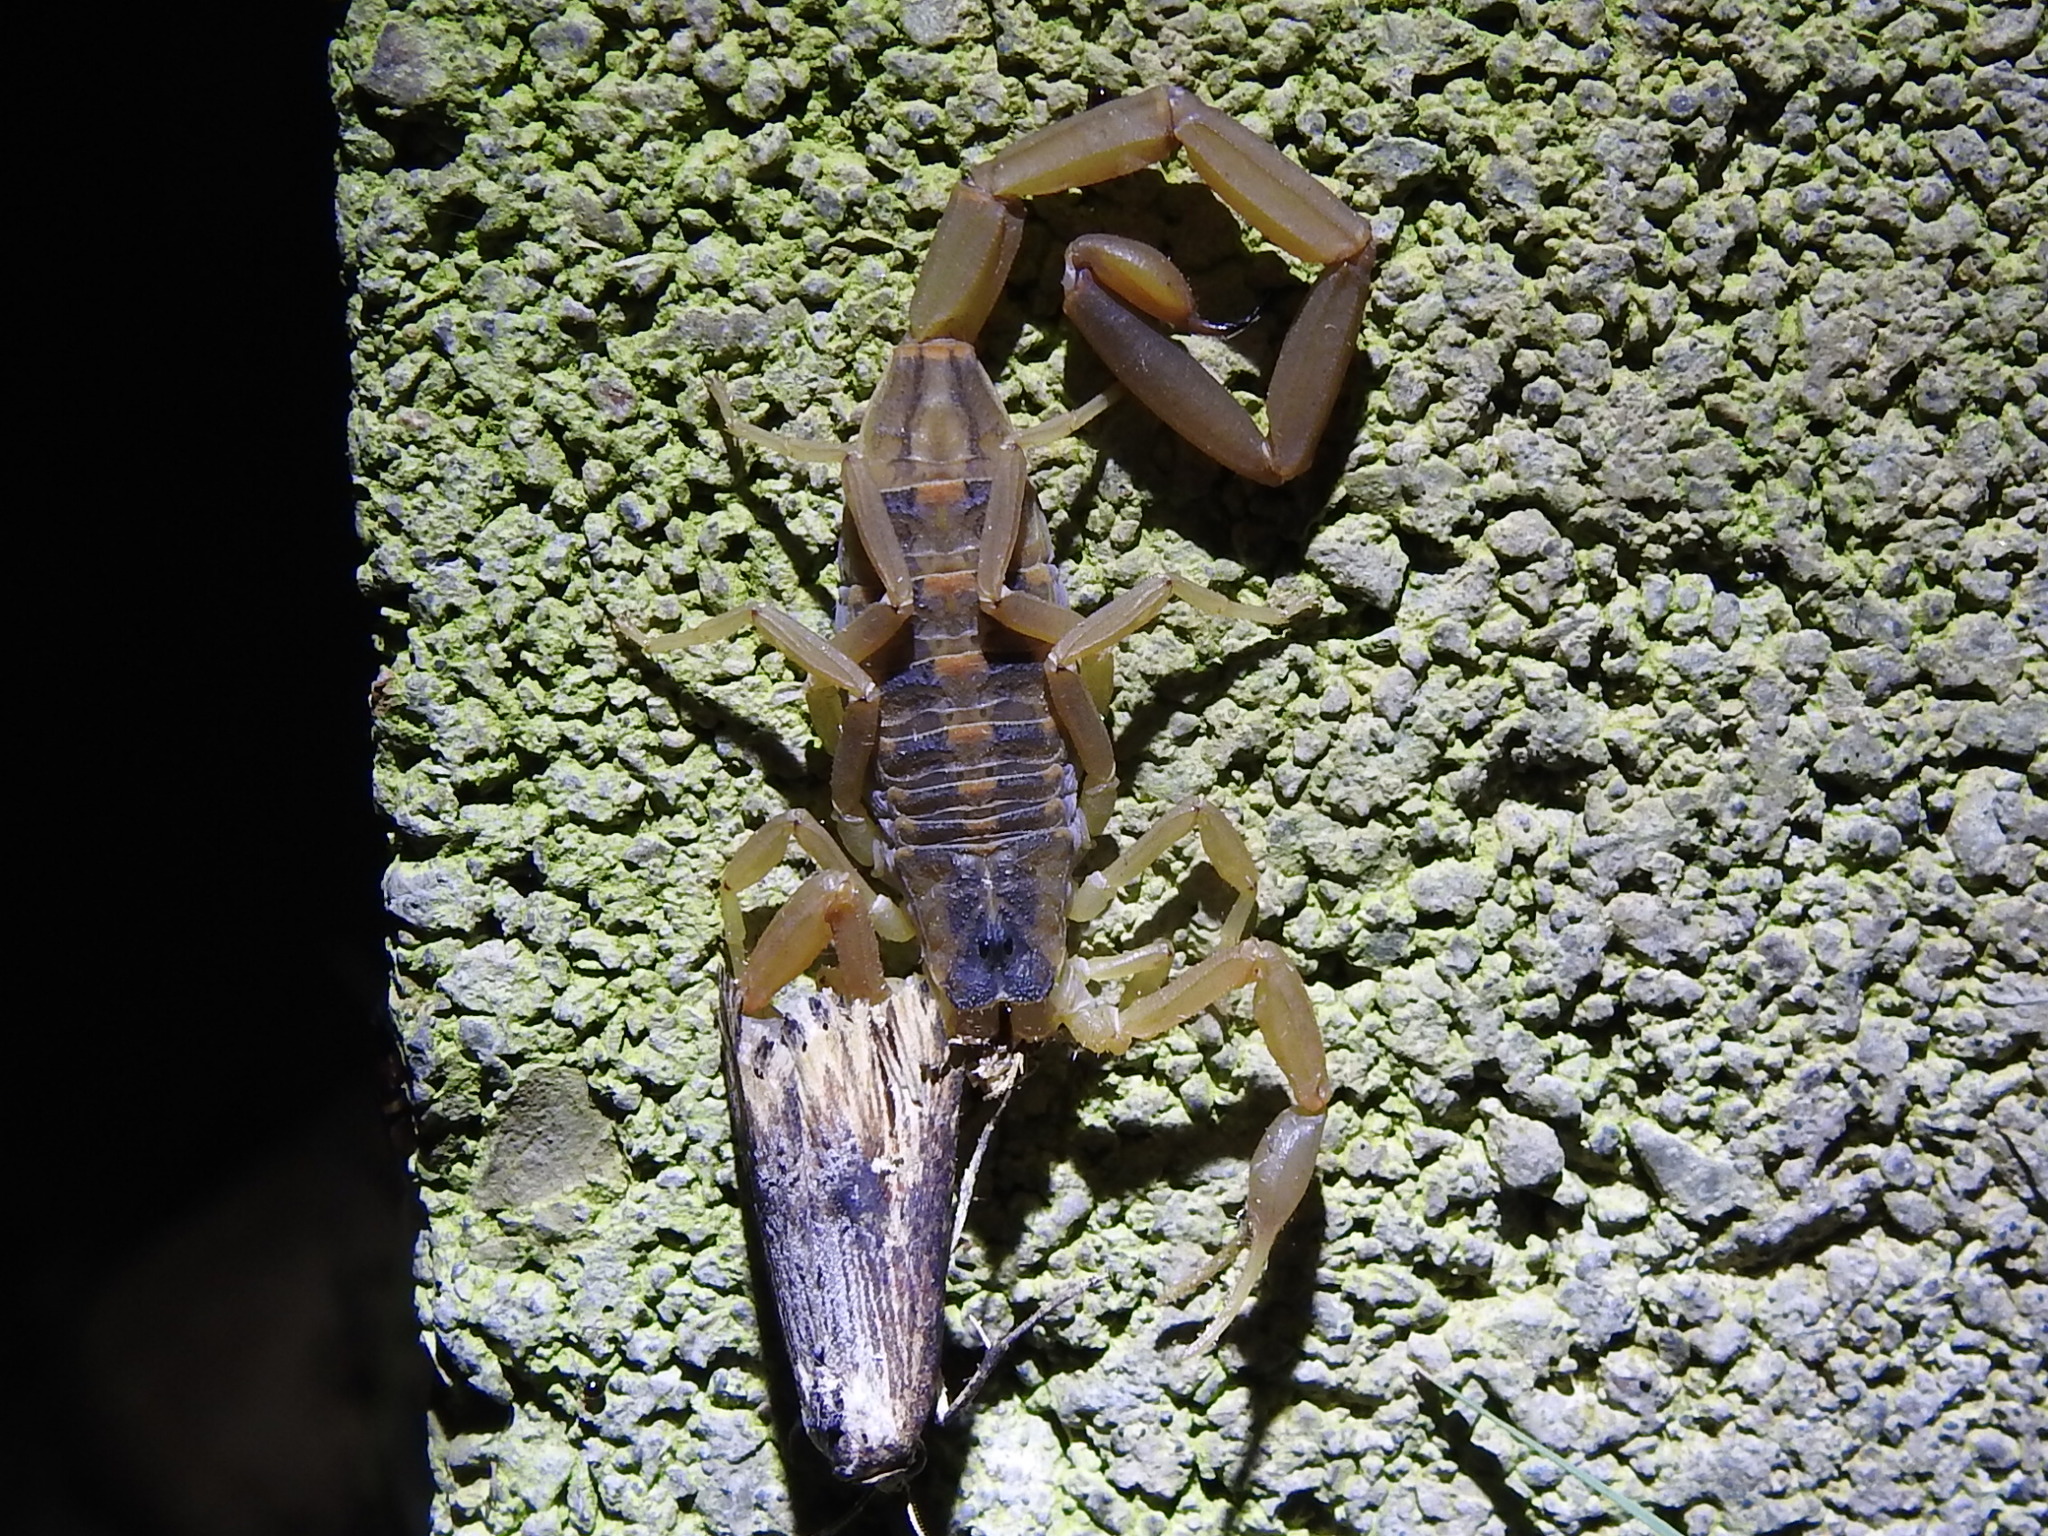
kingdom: Animalia
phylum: Arthropoda
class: Arachnida
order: Scorpiones
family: Buthidae
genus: Centruroides
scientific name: Centruroides vittatus
